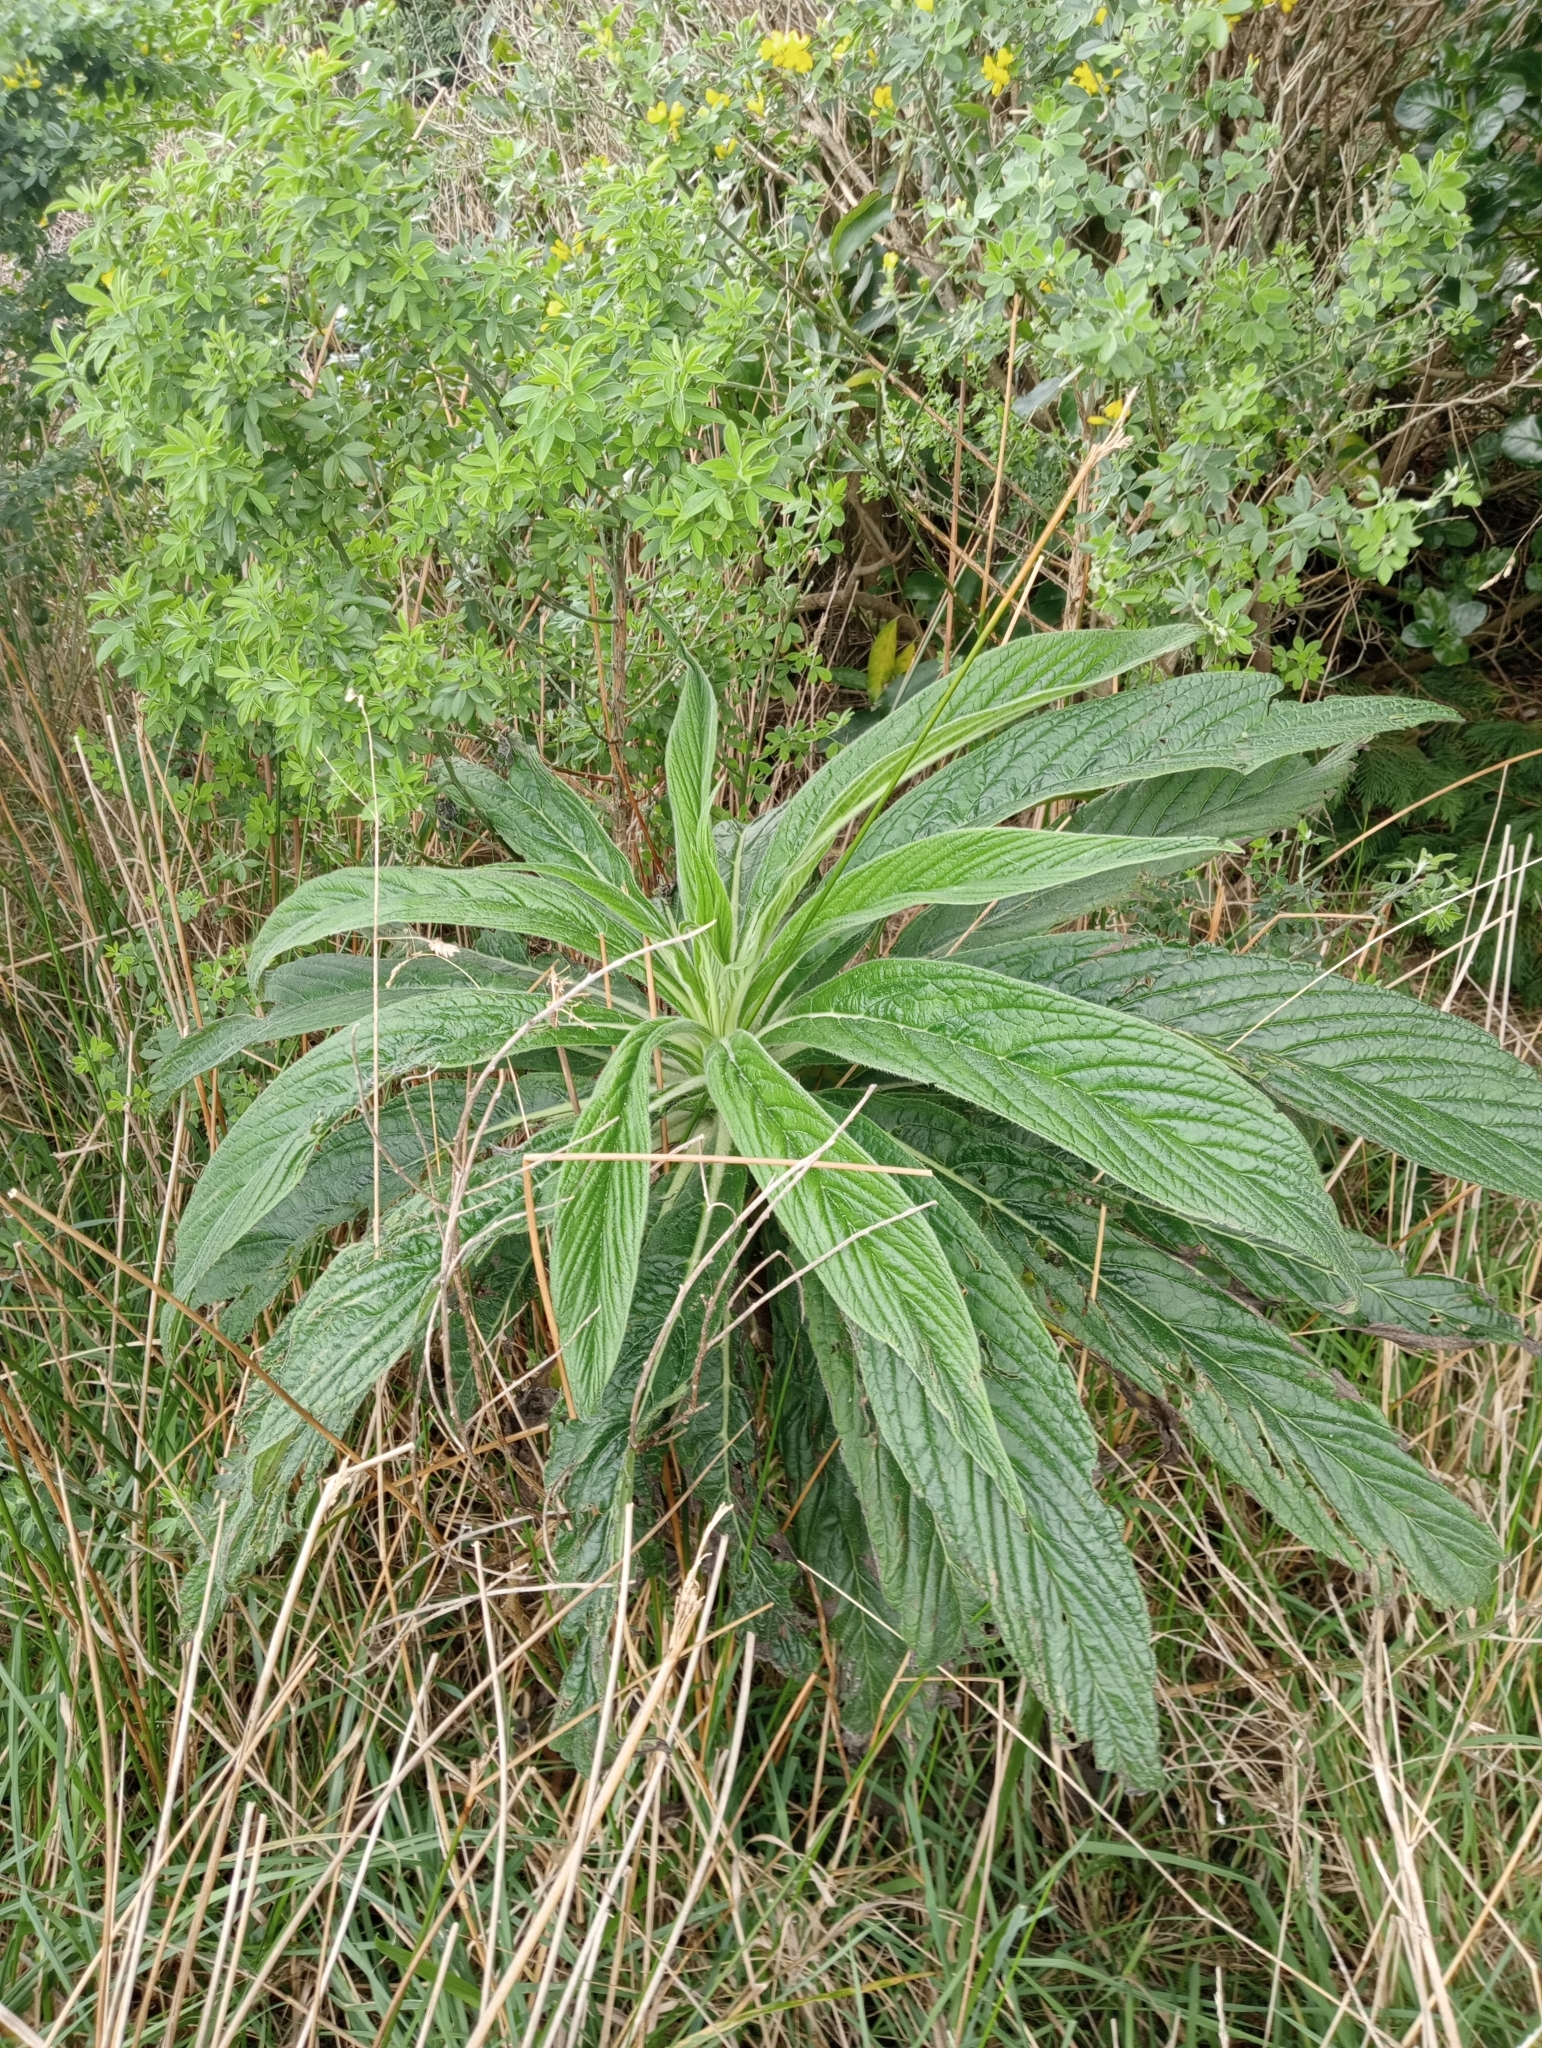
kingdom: Plantae
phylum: Tracheophyta
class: Magnoliopsida
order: Boraginales
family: Boraginaceae
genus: Echium
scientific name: Echium pininana
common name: Giant viper's-bugloss
